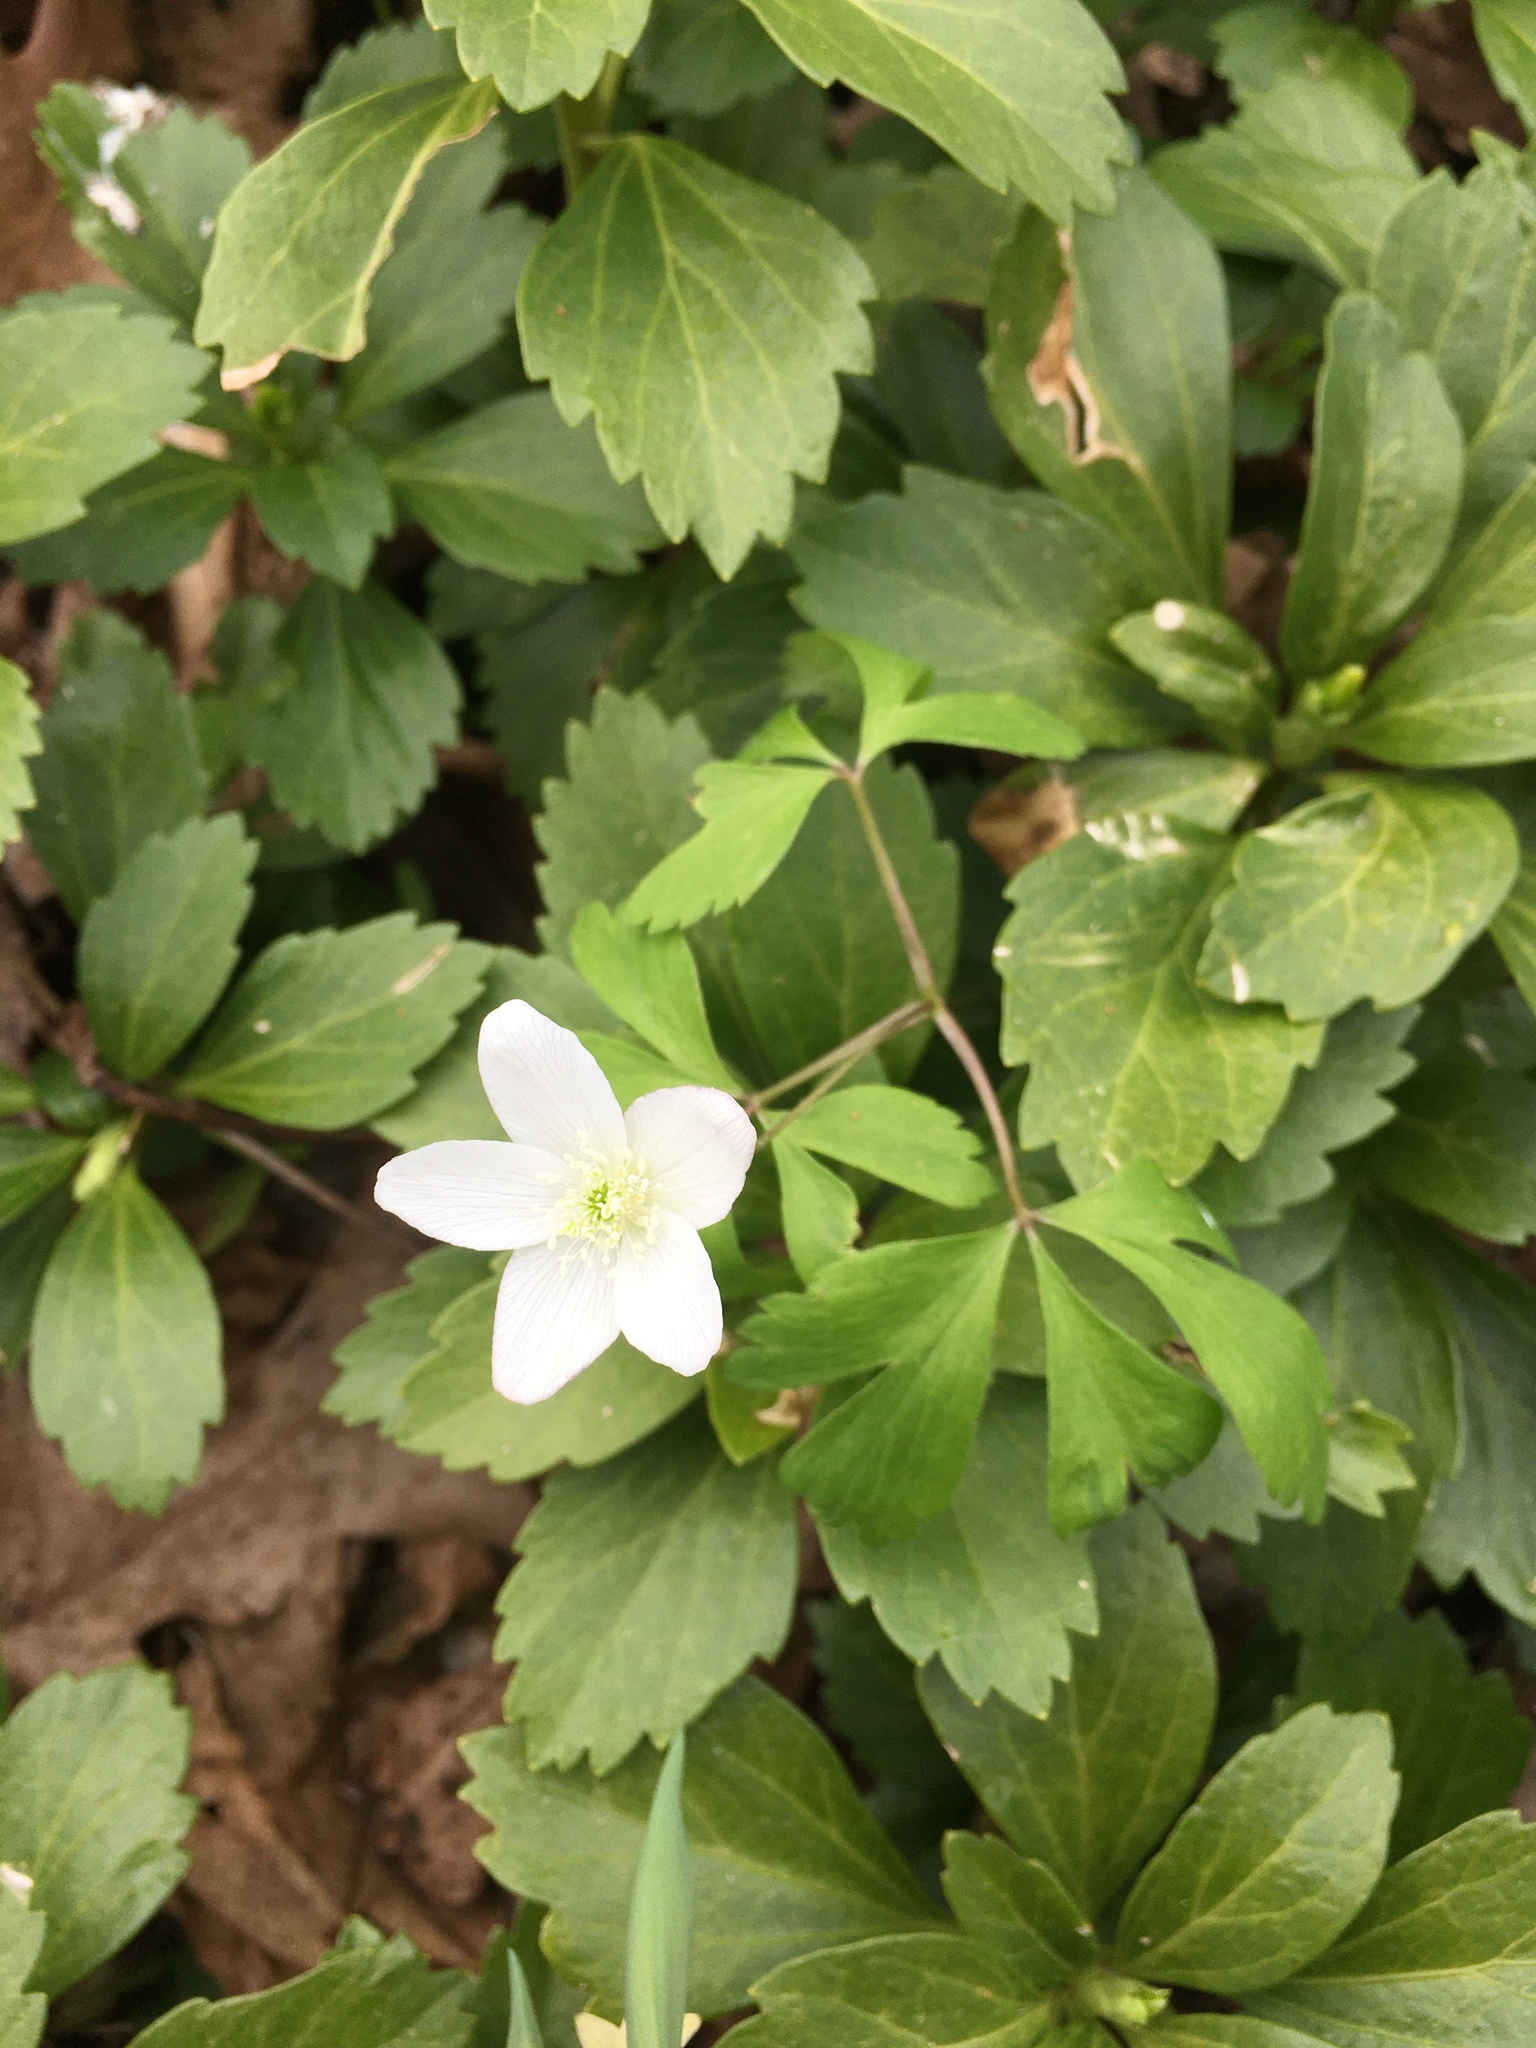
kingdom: Plantae
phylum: Tracheophyta
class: Magnoliopsida
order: Ranunculales
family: Ranunculaceae
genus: Anemone
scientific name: Anemone quinquefolia
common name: Wood anemone
